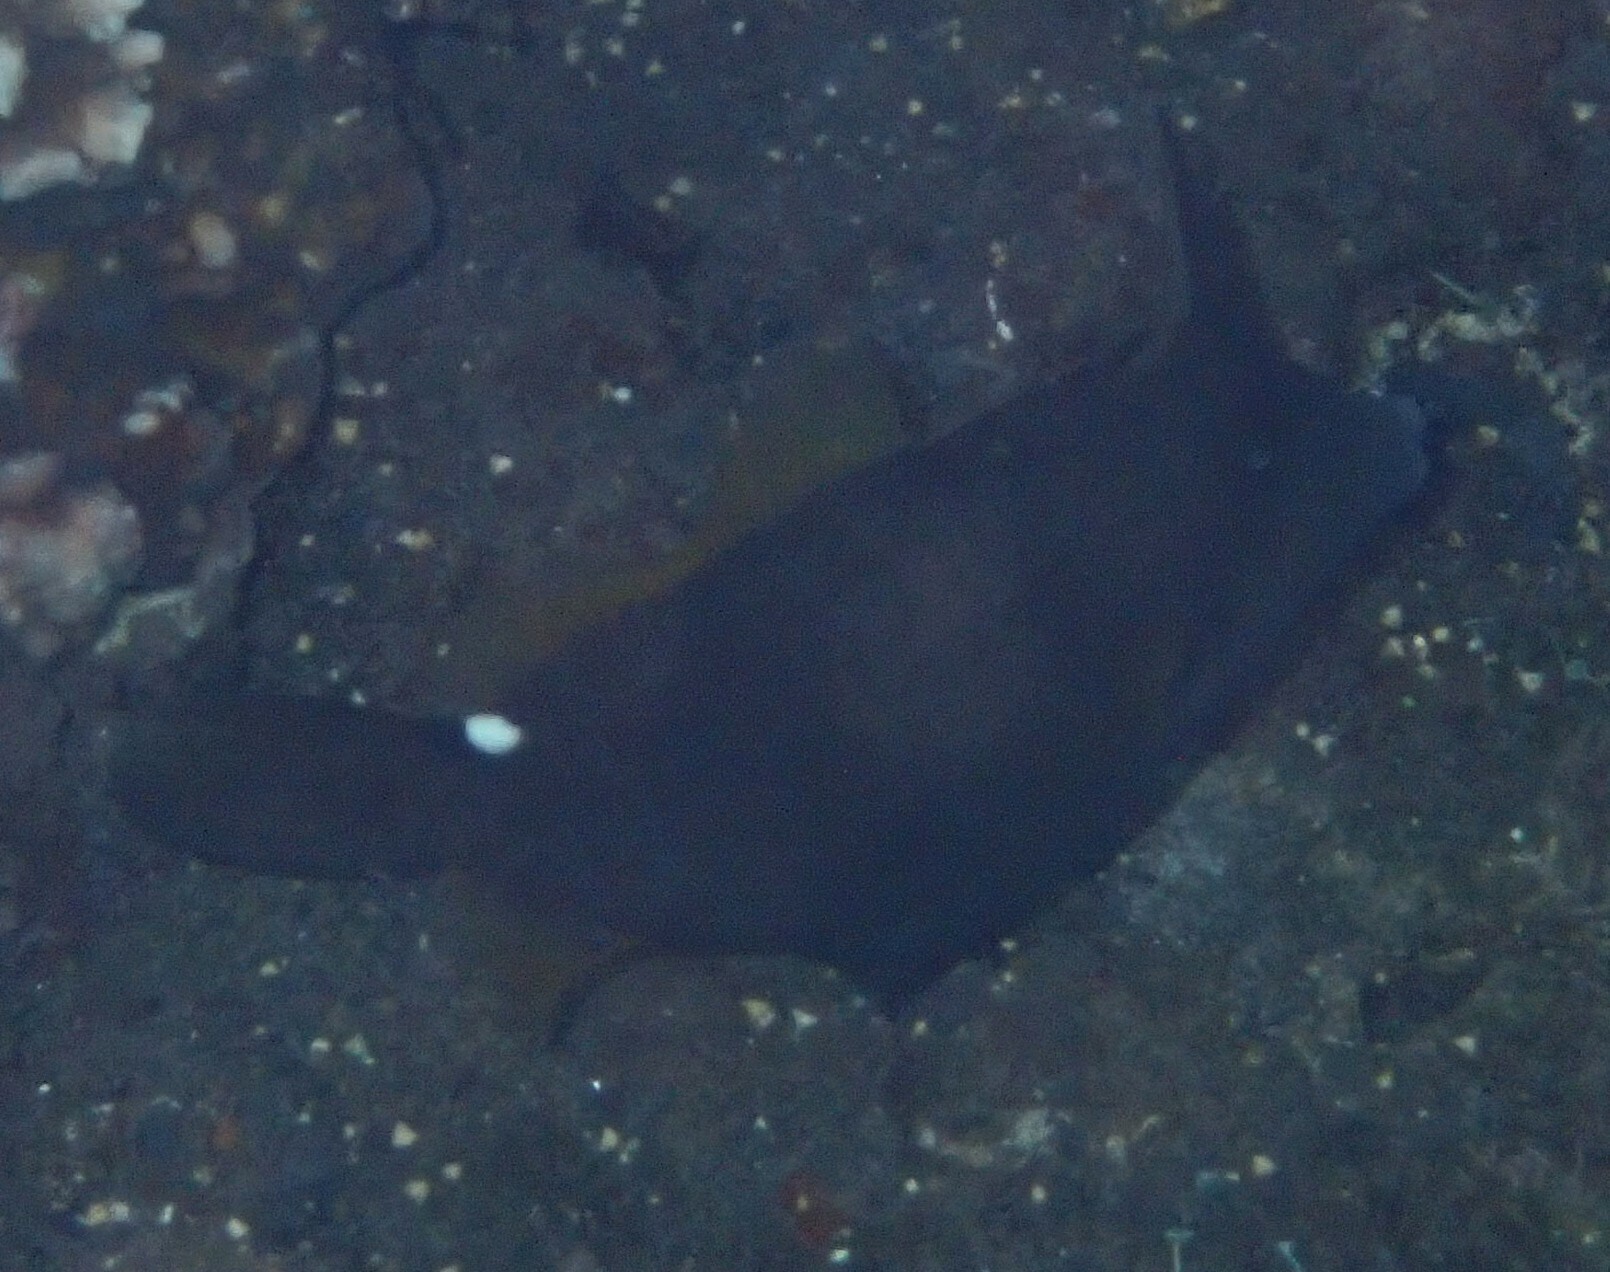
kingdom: Animalia
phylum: Chordata
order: Tetraodontiformes
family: Monacanthidae
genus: Cantherhines
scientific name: Cantherhines pardalis
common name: Honeycomb filefish
